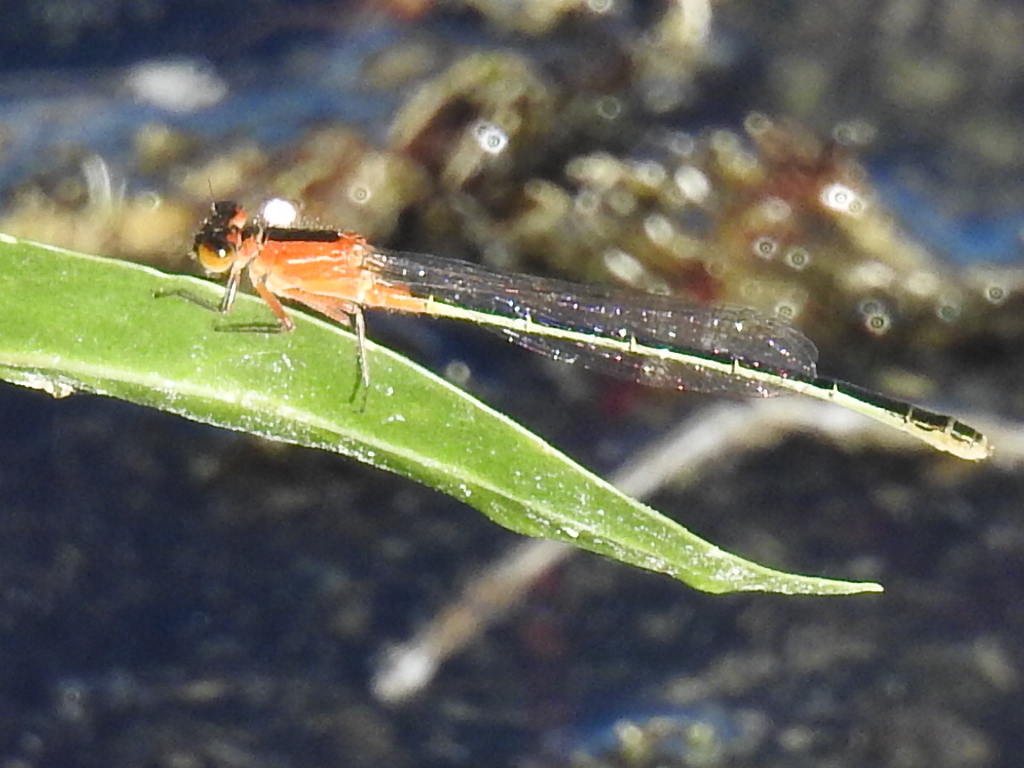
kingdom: Animalia
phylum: Arthropoda
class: Insecta
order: Odonata
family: Coenagrionidae
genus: Ischnura
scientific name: Ischnura ramburii
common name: Rambur's forktail
